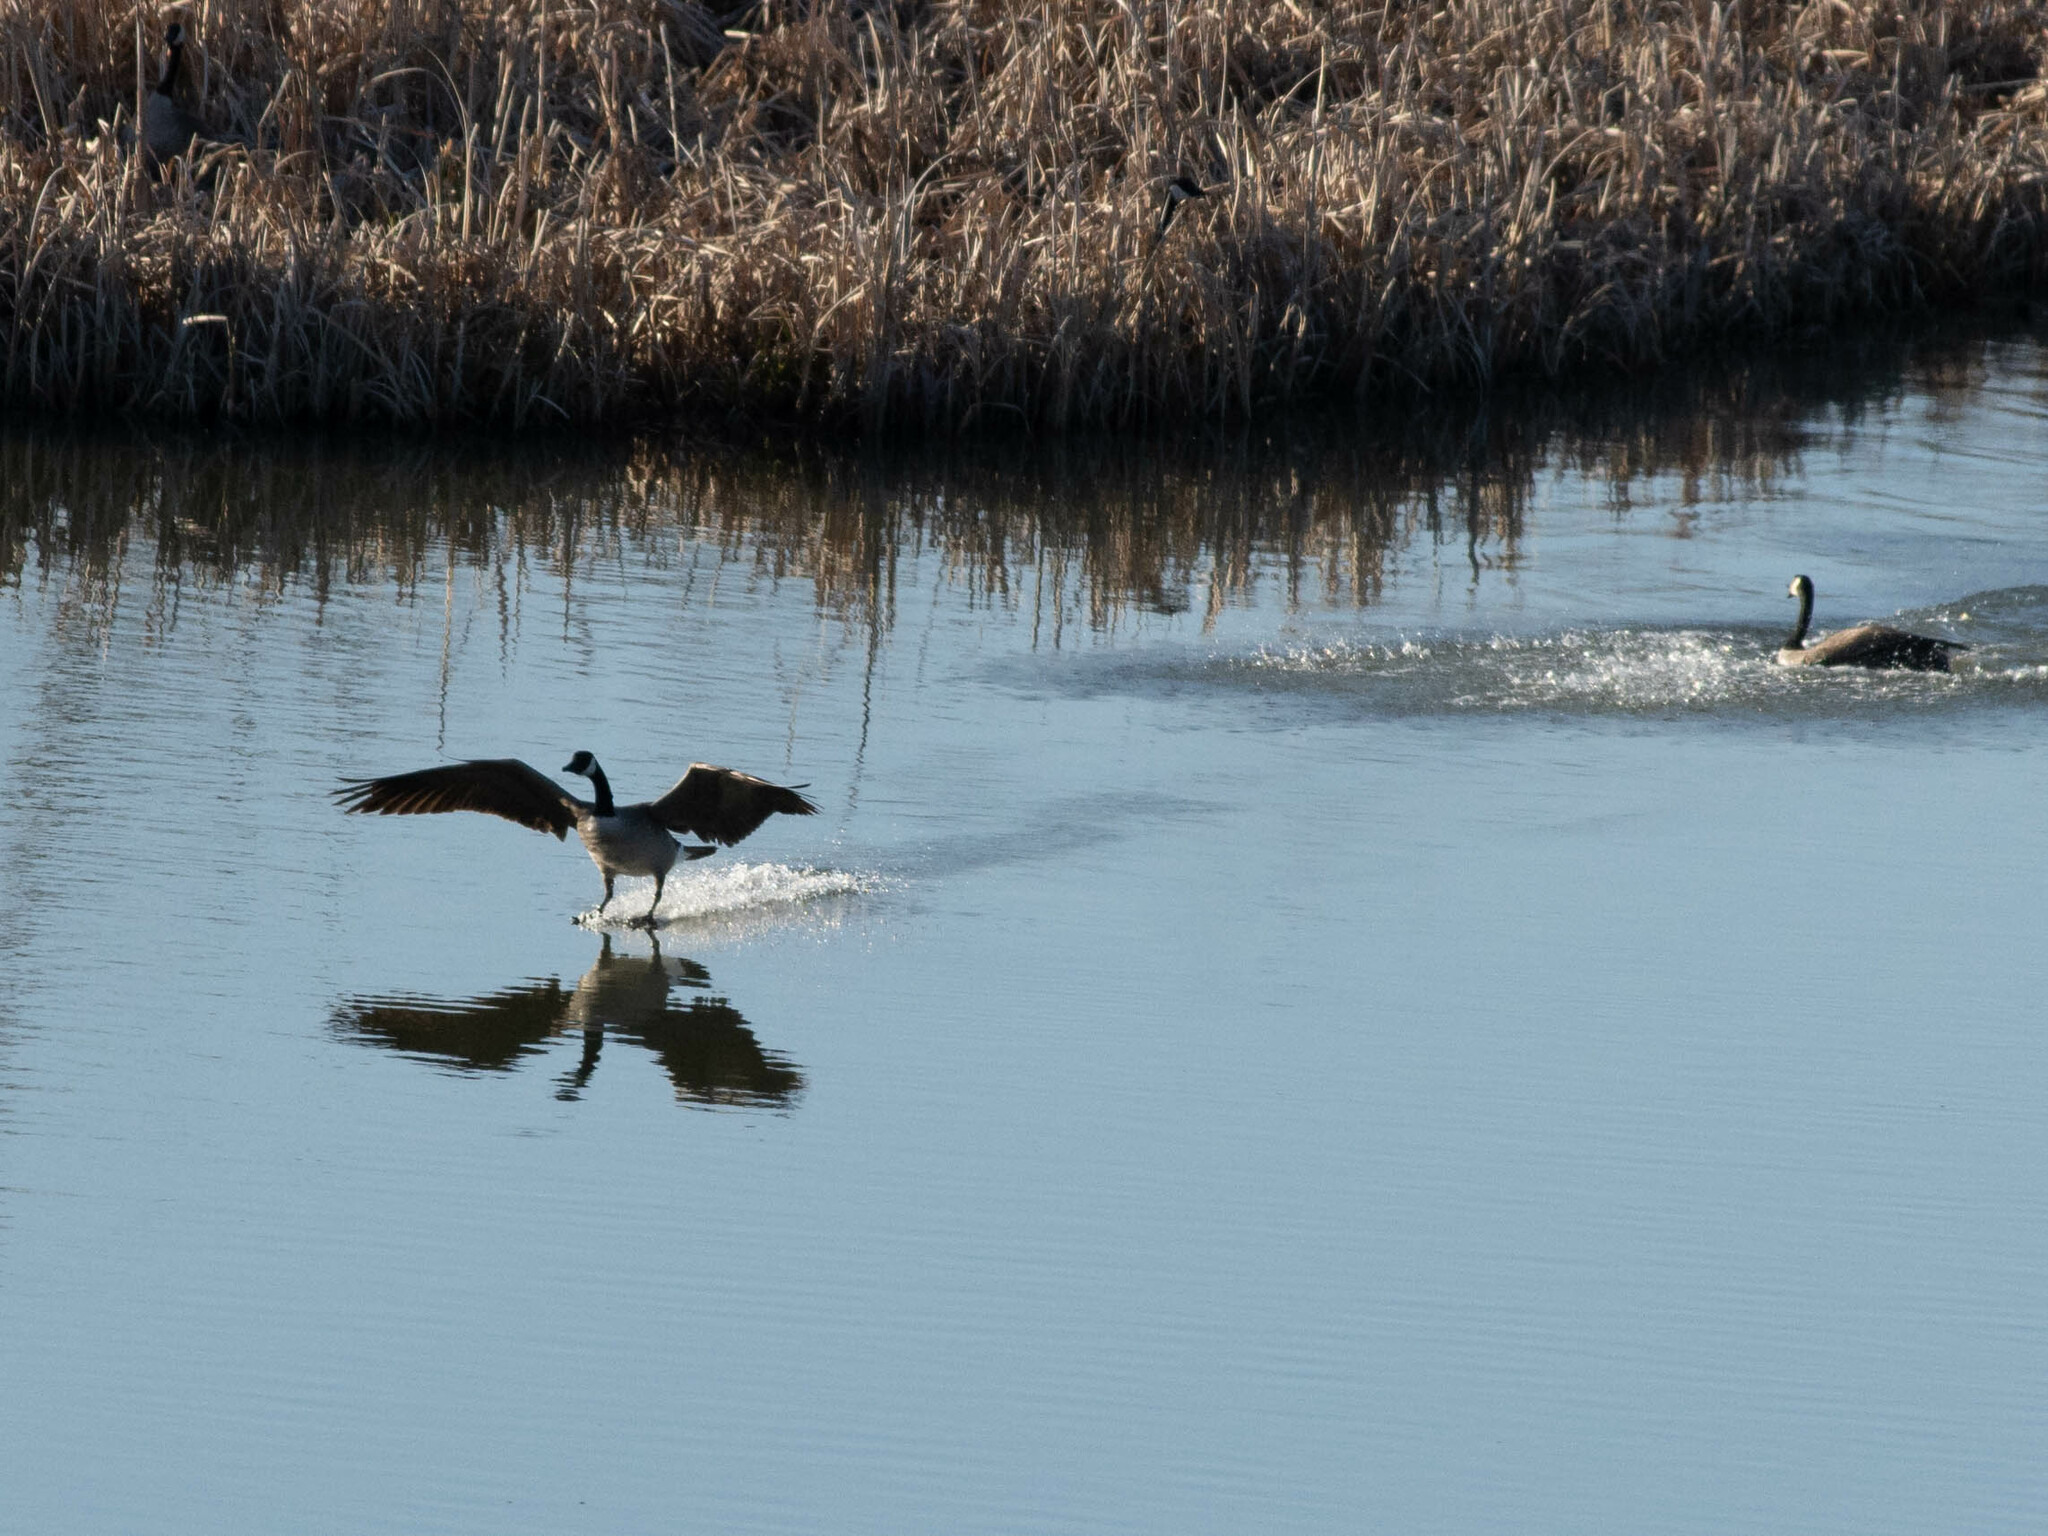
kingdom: Animalia
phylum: Chordata
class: Aves
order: Anseriformes
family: Anatidae
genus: Branta
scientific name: Branta canadensis
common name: Canada goose
